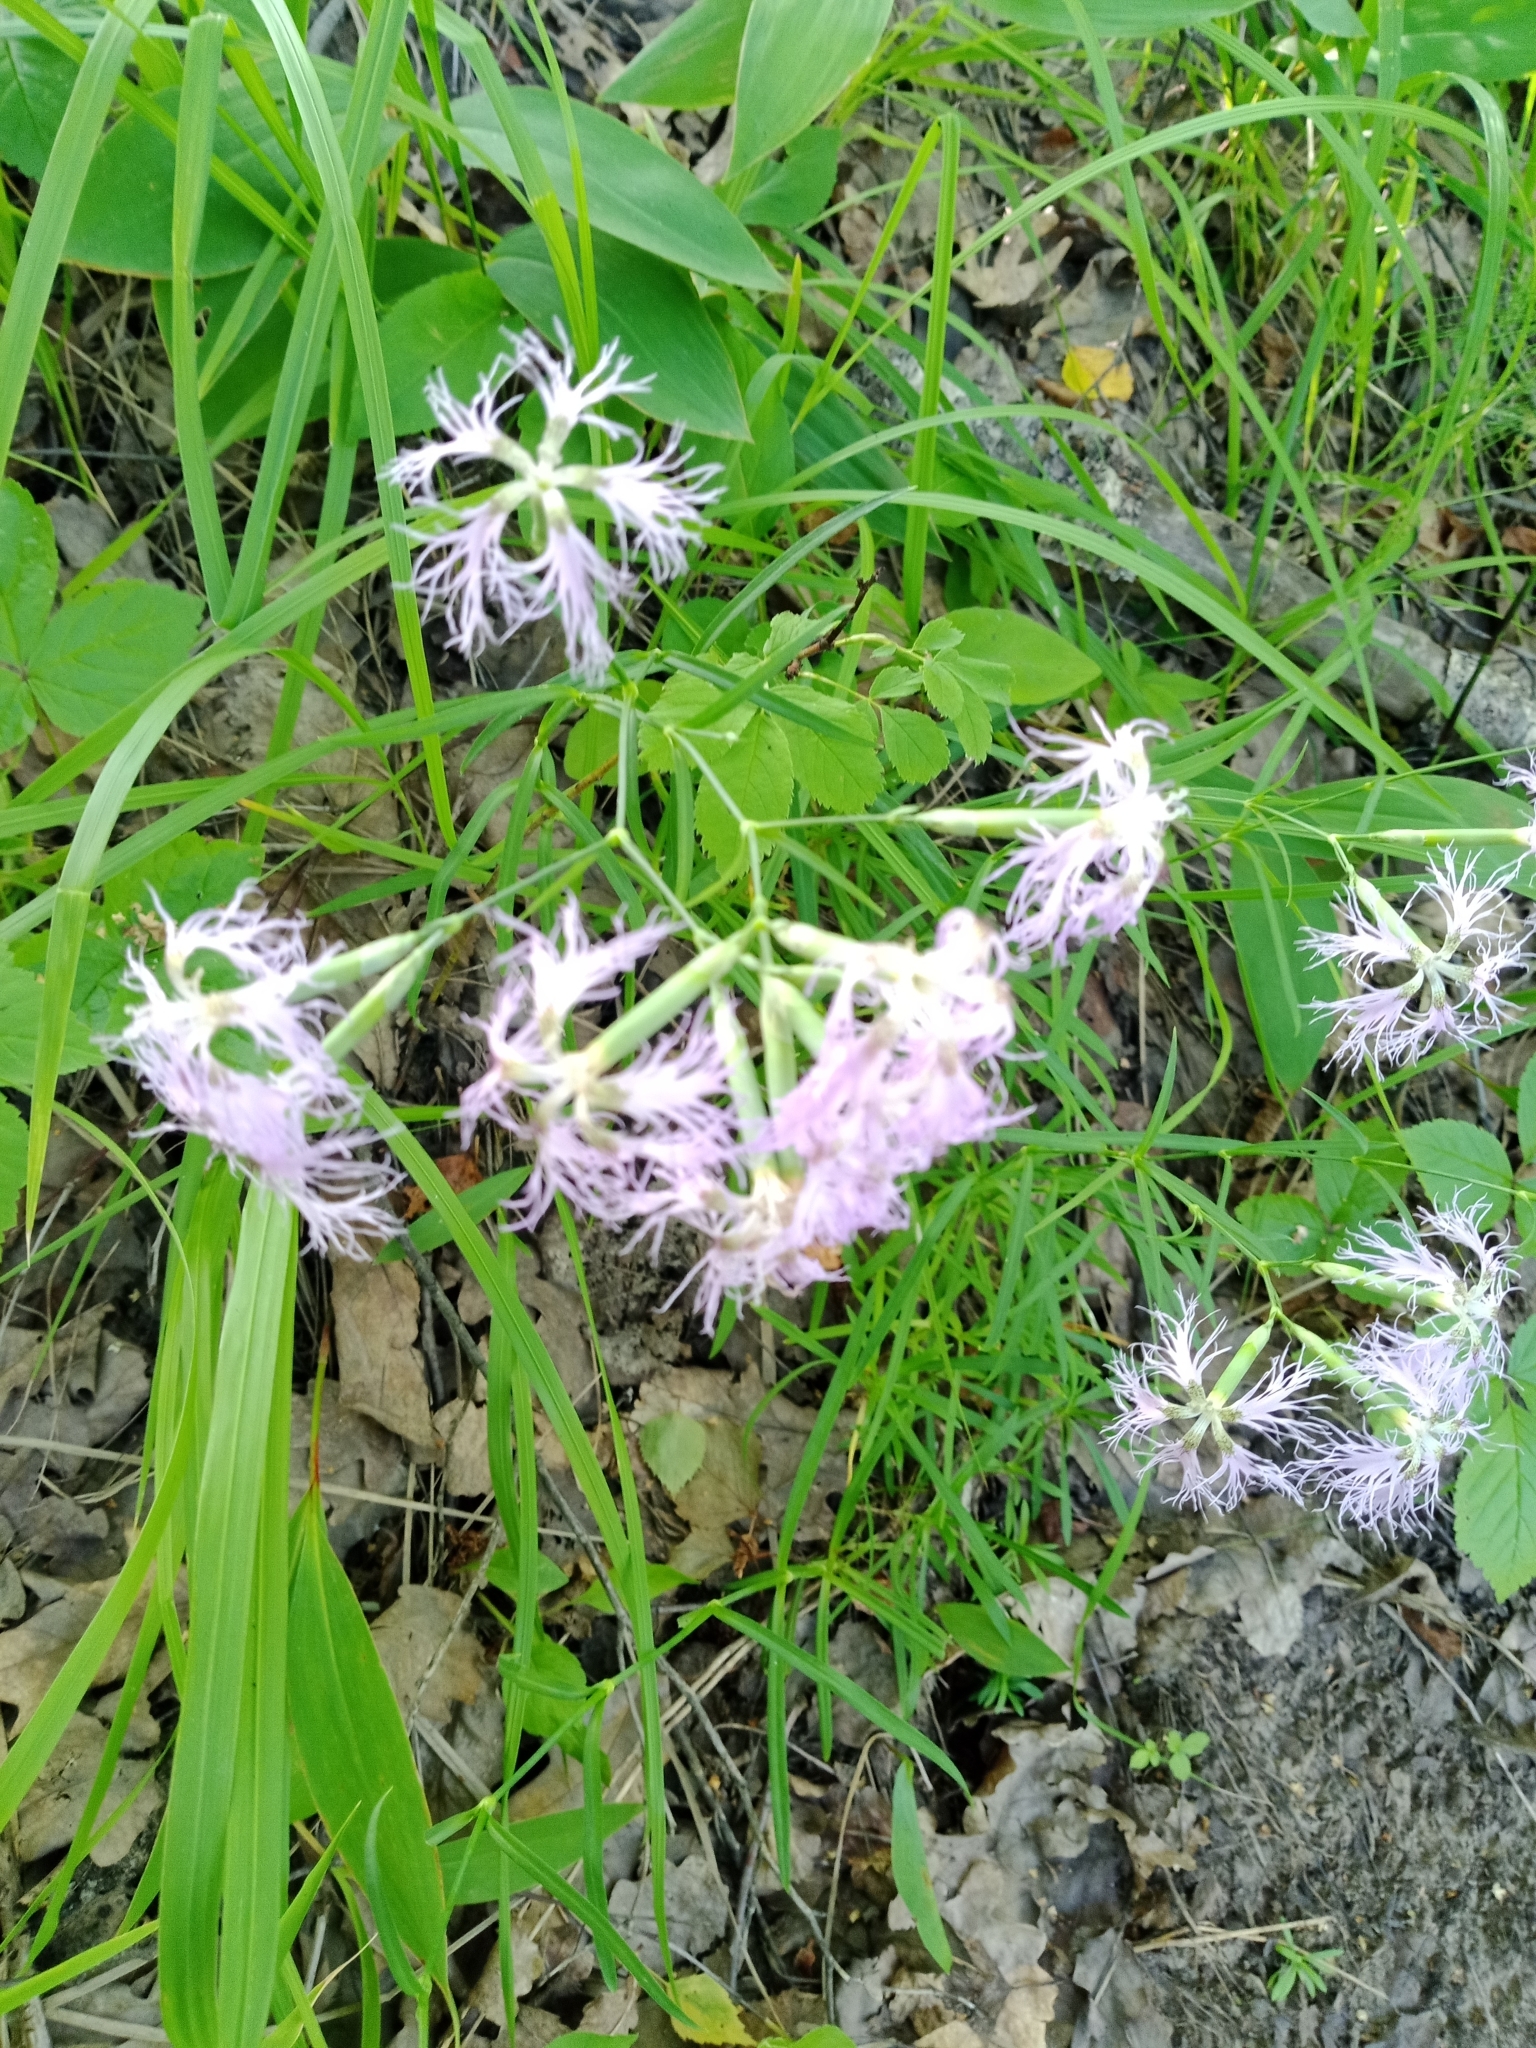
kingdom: Plantae
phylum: Tracheophyta
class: Magnoliopsida
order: Caryophyllales
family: Caryophyllaceae
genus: Dianthus
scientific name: Dianthus superbus
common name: Fringed pink
